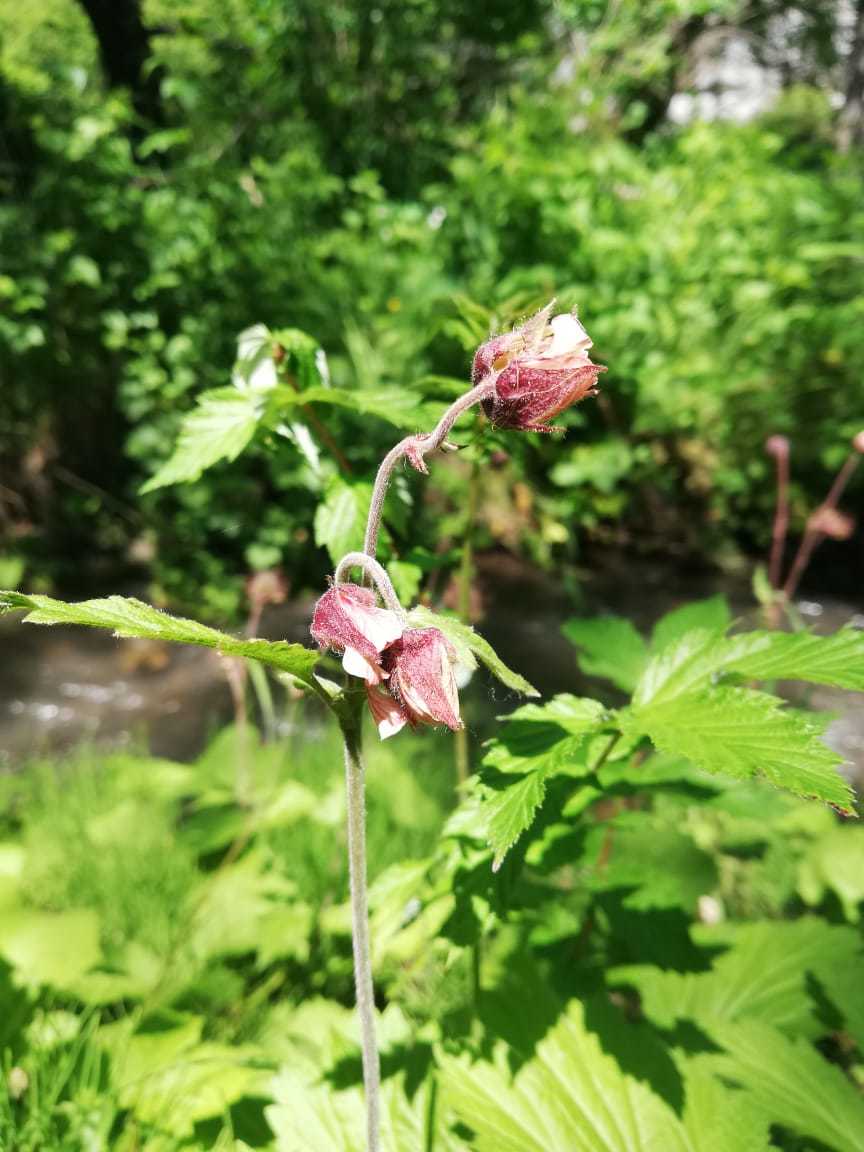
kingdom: Plantae
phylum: Tracheophyta
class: Magnoliopsida
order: Rosales
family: Rosaceae
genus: Geum
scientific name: Geum rivale
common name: Water avens
